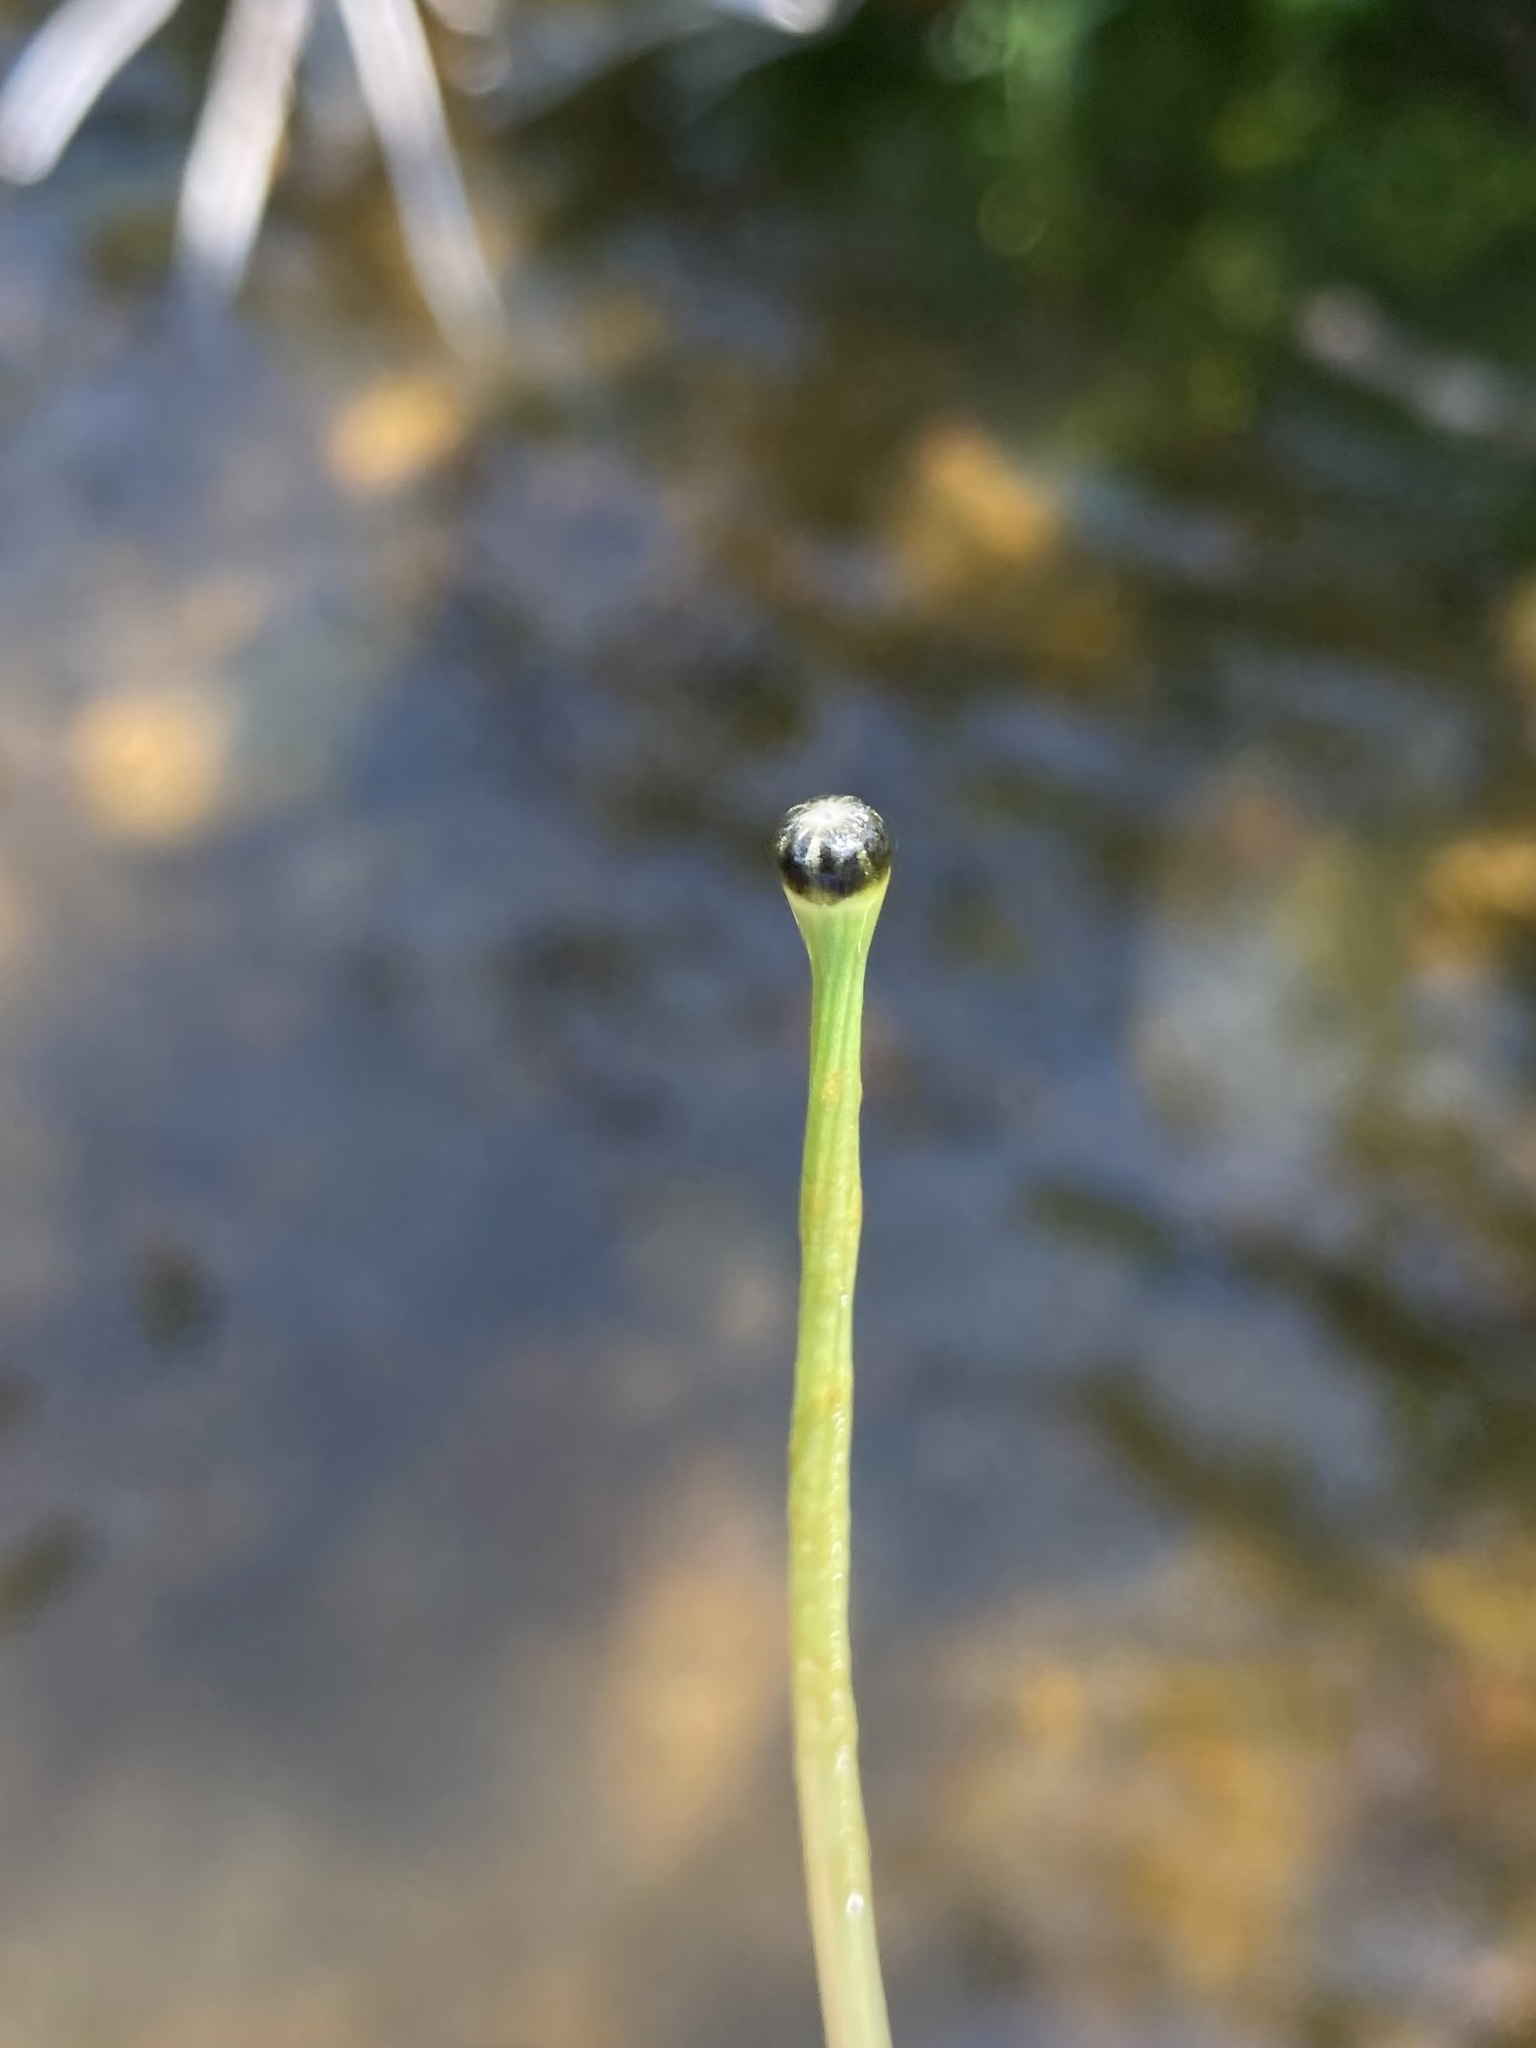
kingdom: Plantae
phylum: Tracheophyta
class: Liliopsida
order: Poales
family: Eriocaulaceae
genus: Eriocaulon
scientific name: Eriocaulon aquaticum
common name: Pipewort
